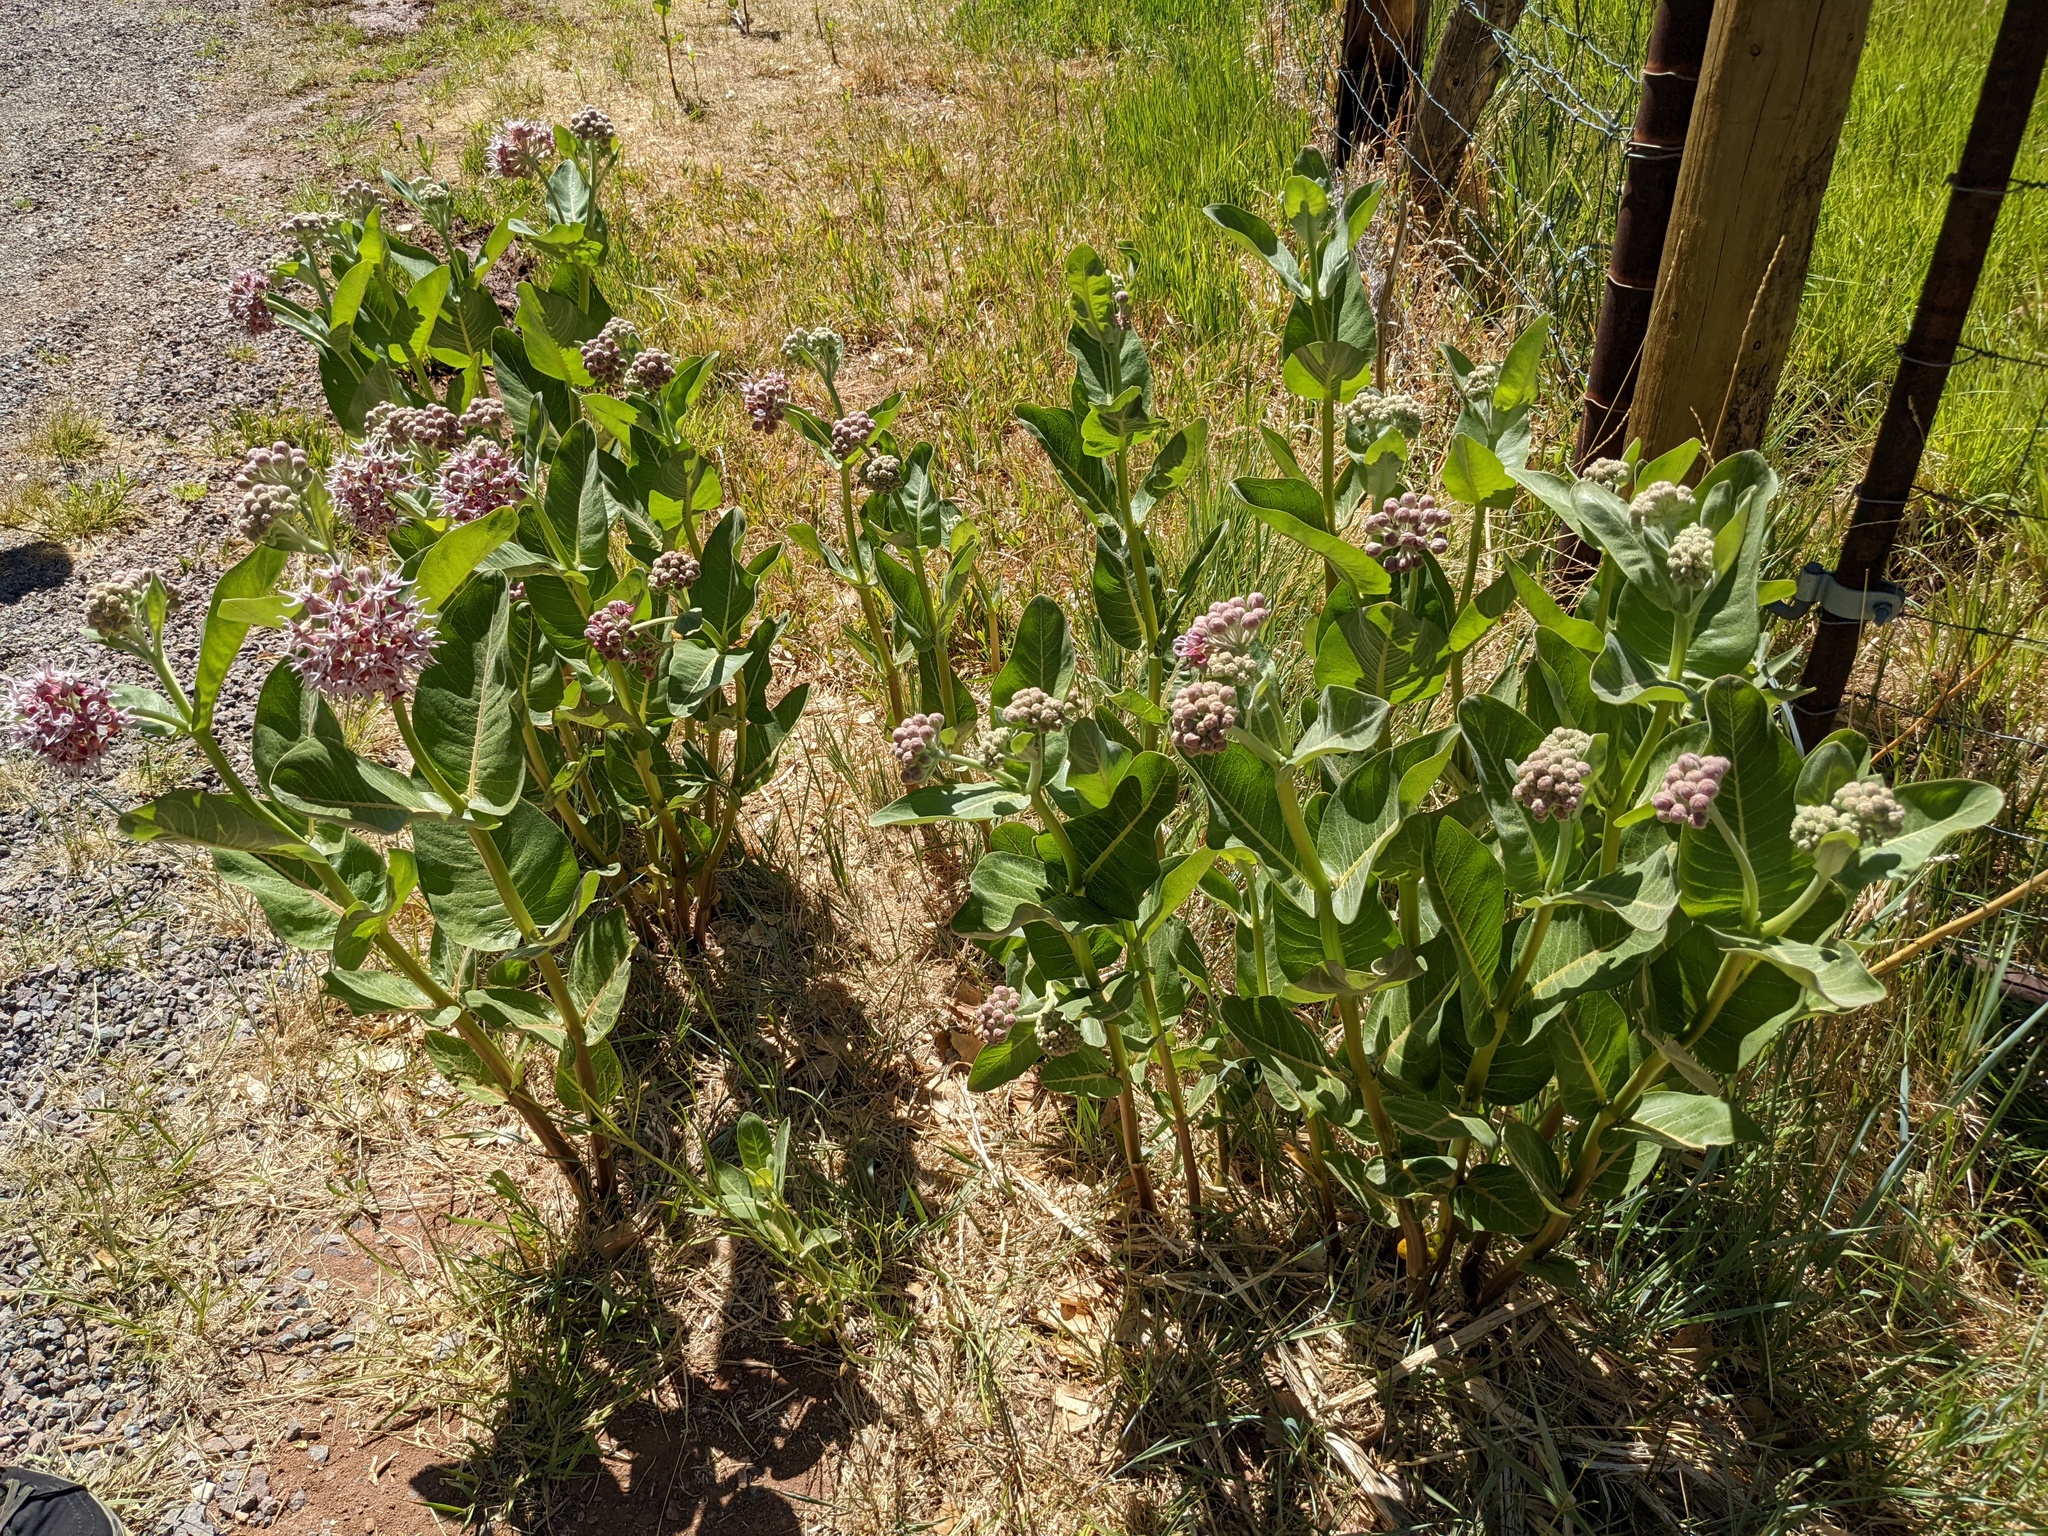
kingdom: Plantae
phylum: Tracheophyta
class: Magnoliopsida
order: Gentianales
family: Apocynaceae
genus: Asclepias
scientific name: Asclepias speciosa
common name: Showy milkweed
